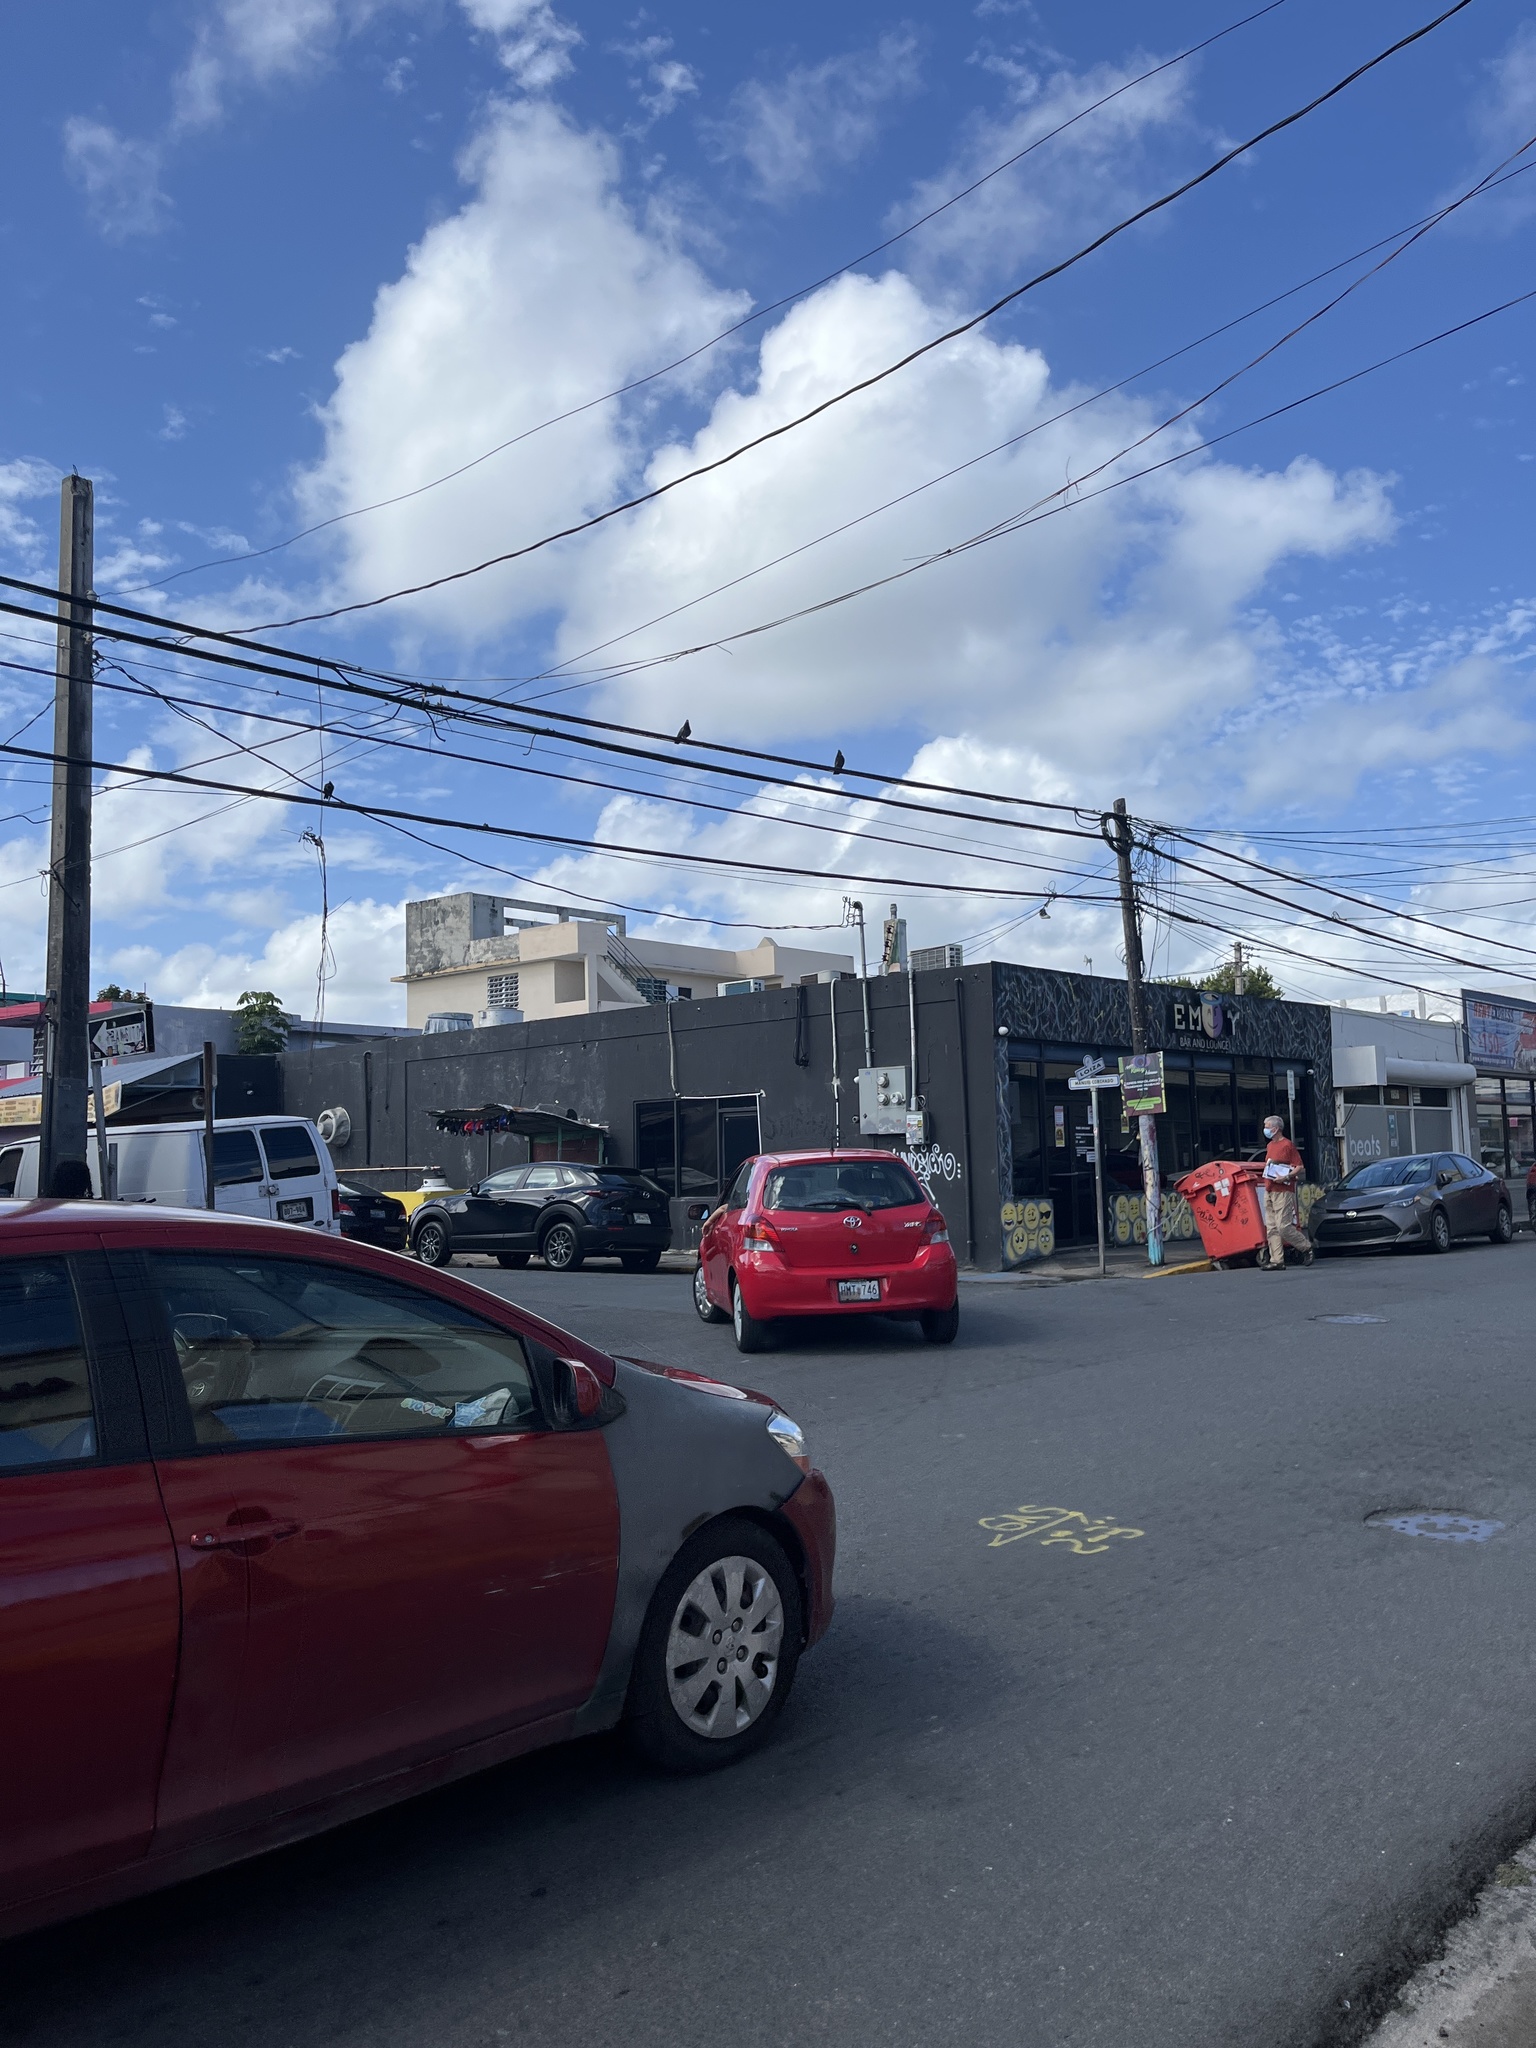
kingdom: Animalia
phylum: Chordata
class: Aves
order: Columbiformes
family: Columbidae
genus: Columba
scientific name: Columba livia
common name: Rock pigeon
